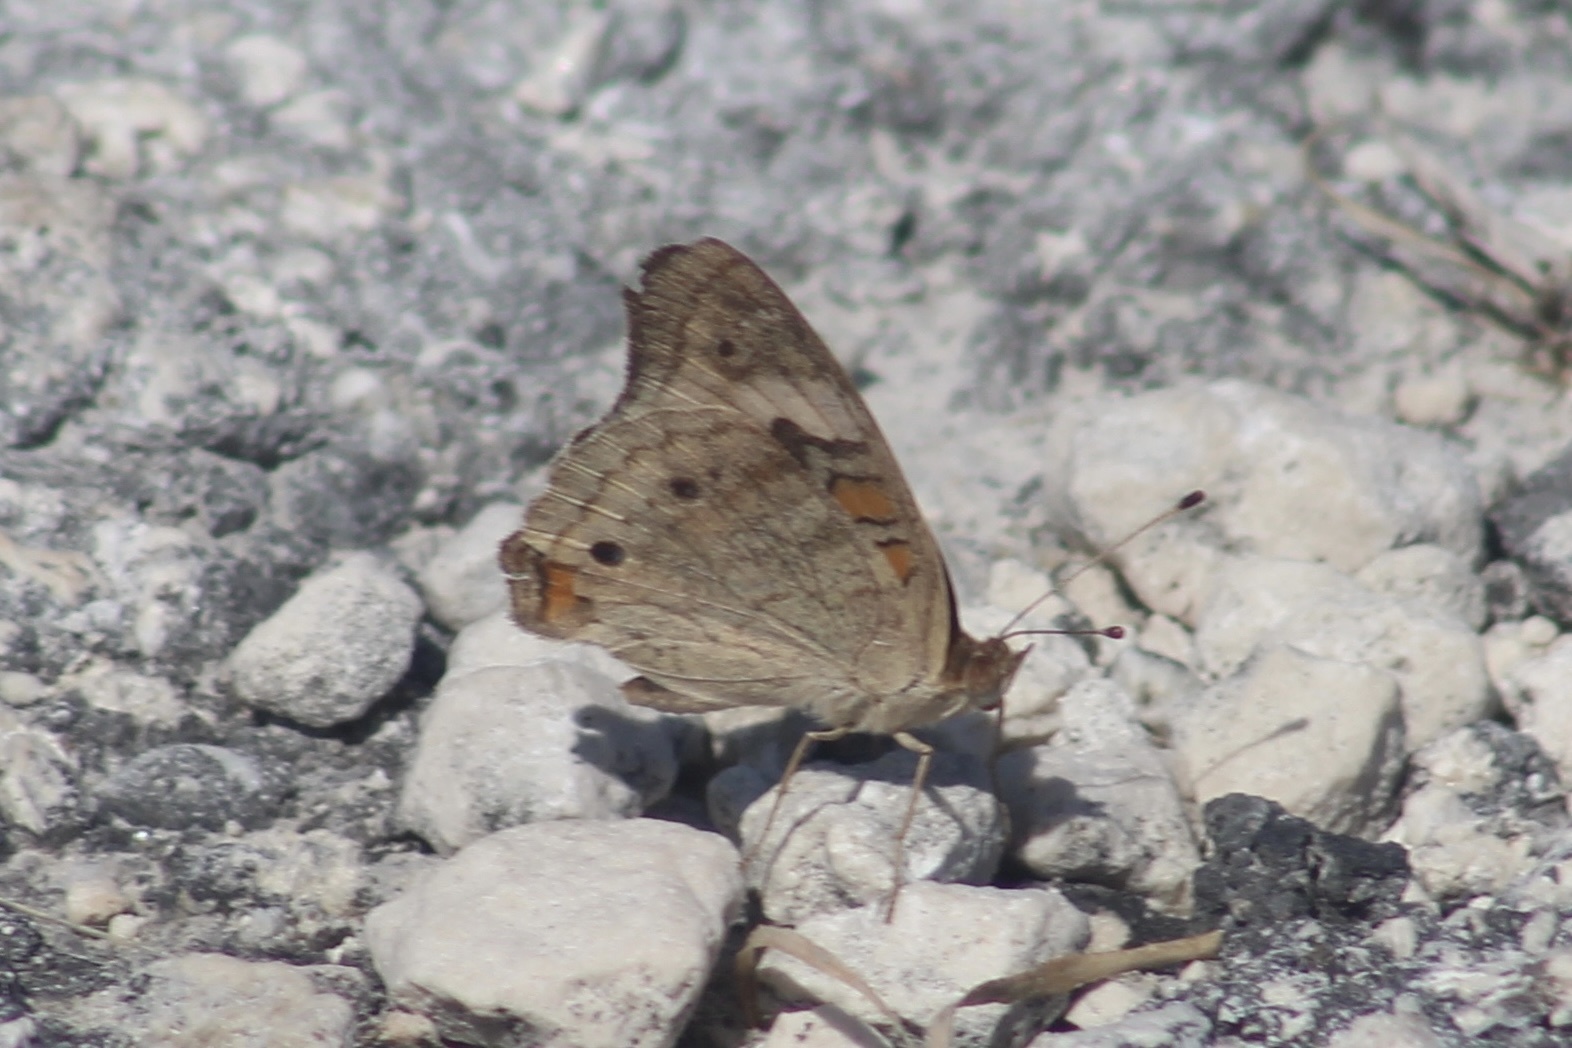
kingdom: Animalia
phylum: Arthropoda
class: Insecta
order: Lepidoptera
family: Nymphalidae
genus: Junonia
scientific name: Junonia neildi
